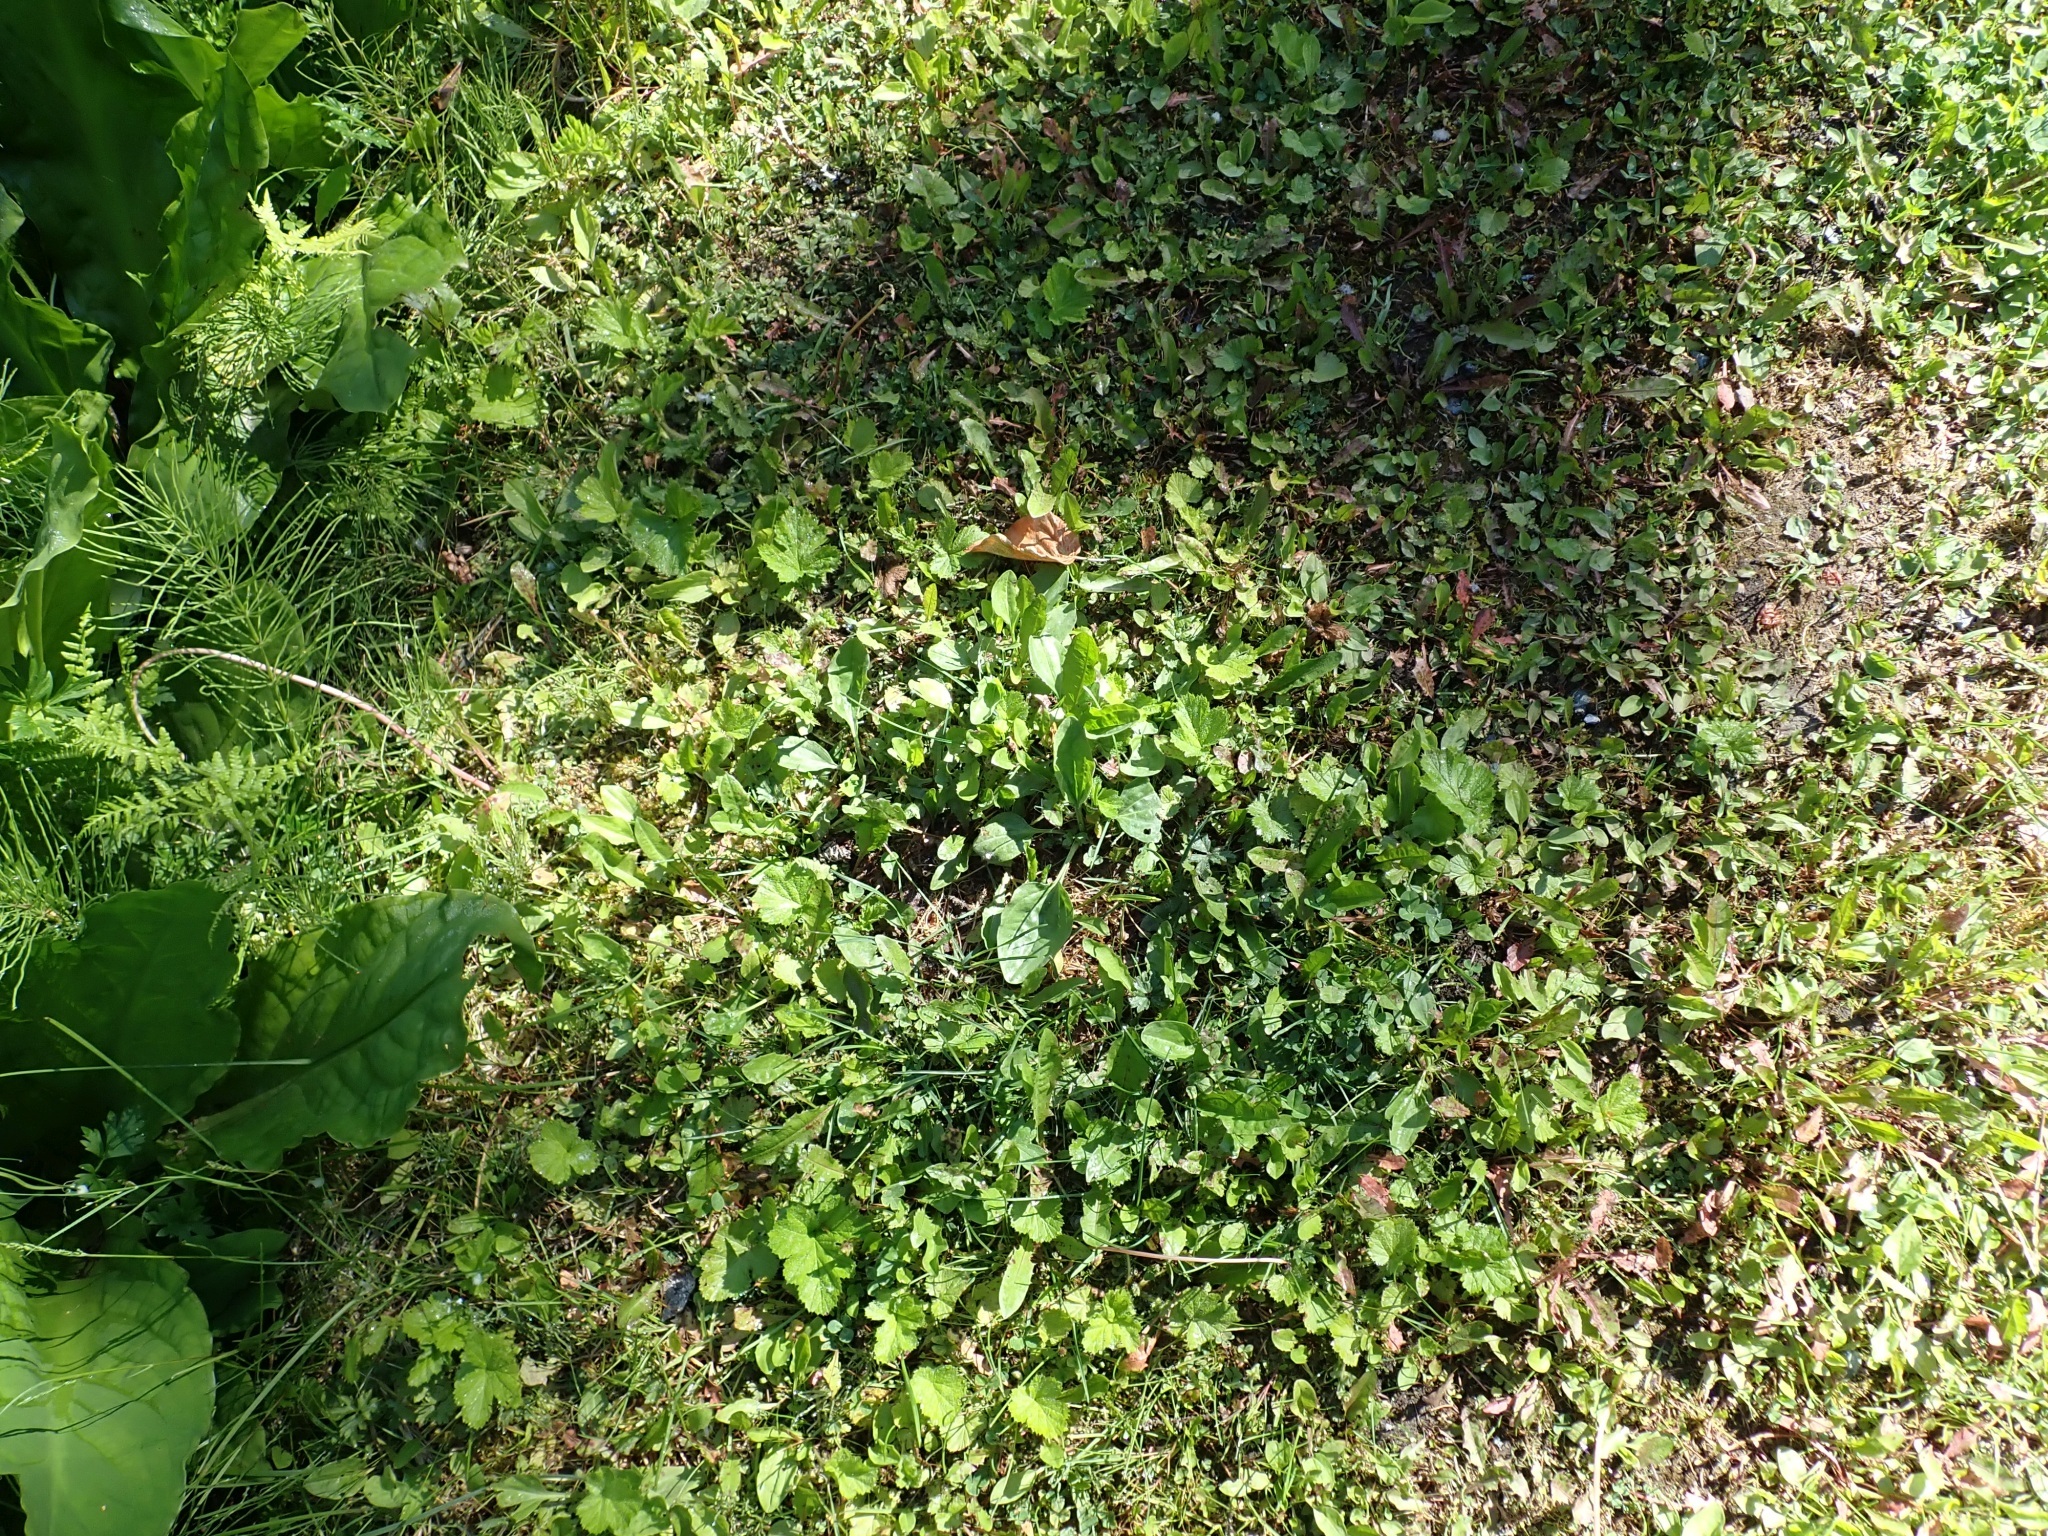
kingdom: Plantae
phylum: Tracheophyta
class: Magnoliopsida
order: Lamiales
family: Plantaginaceae
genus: Plantago
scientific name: Plantago major
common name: Common plantain
